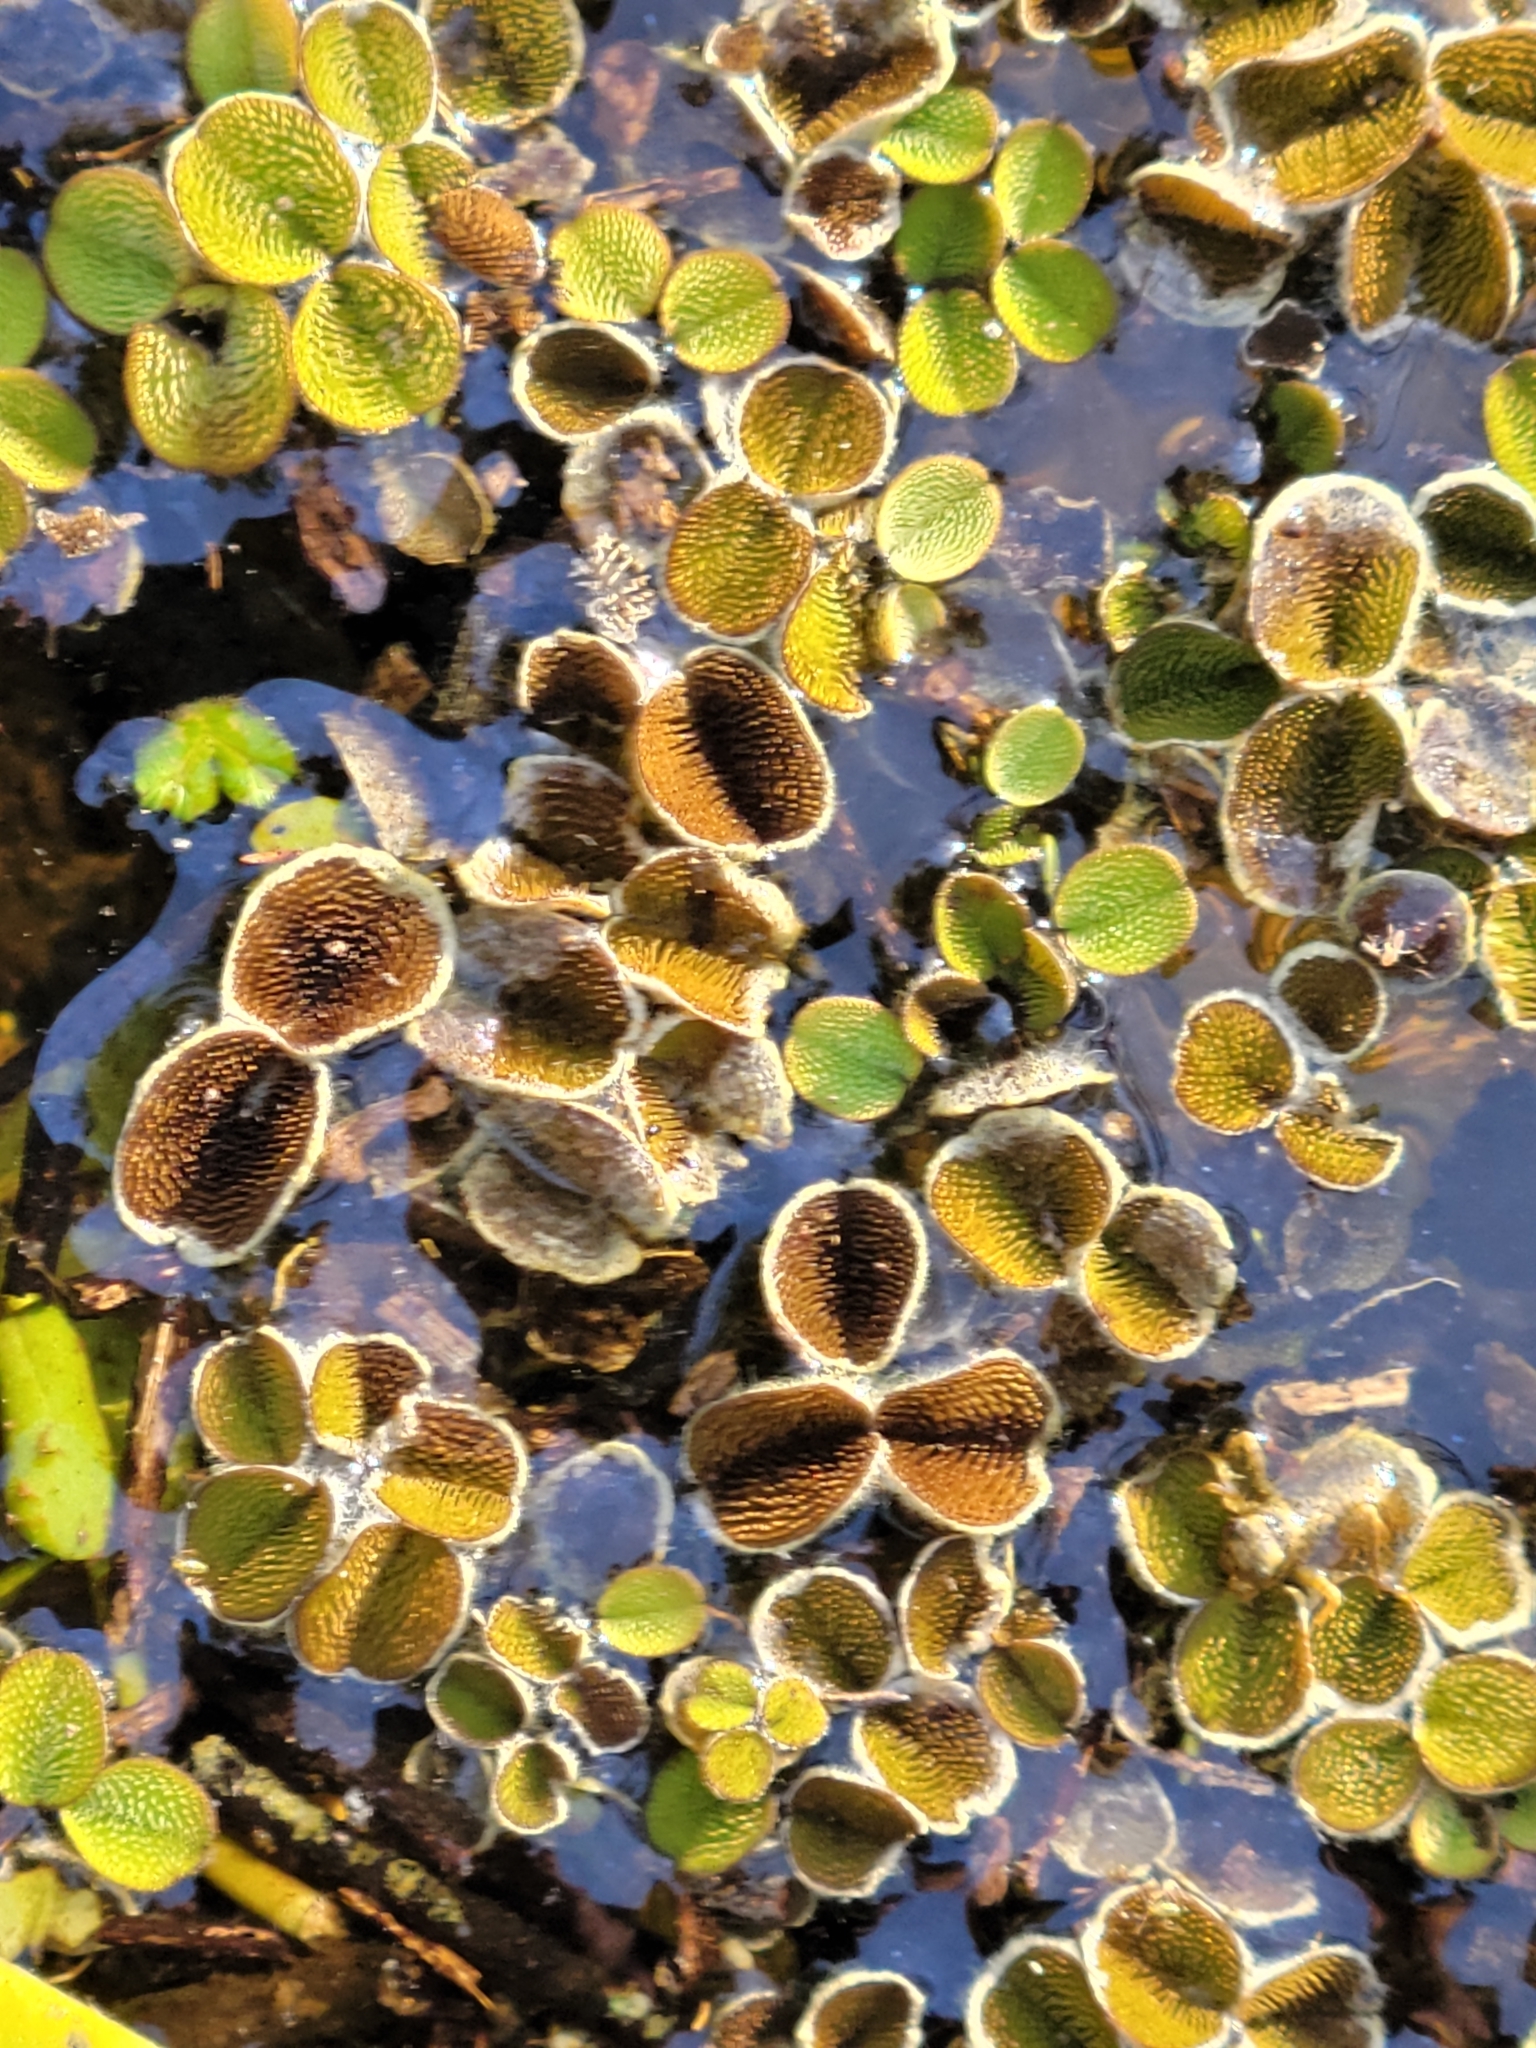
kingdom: Plantae
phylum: Tracheophyta
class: Polypodiopsida
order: Salviniales
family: Salviniaceae
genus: Salvinia
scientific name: Salvinia minima
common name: Water spangles
